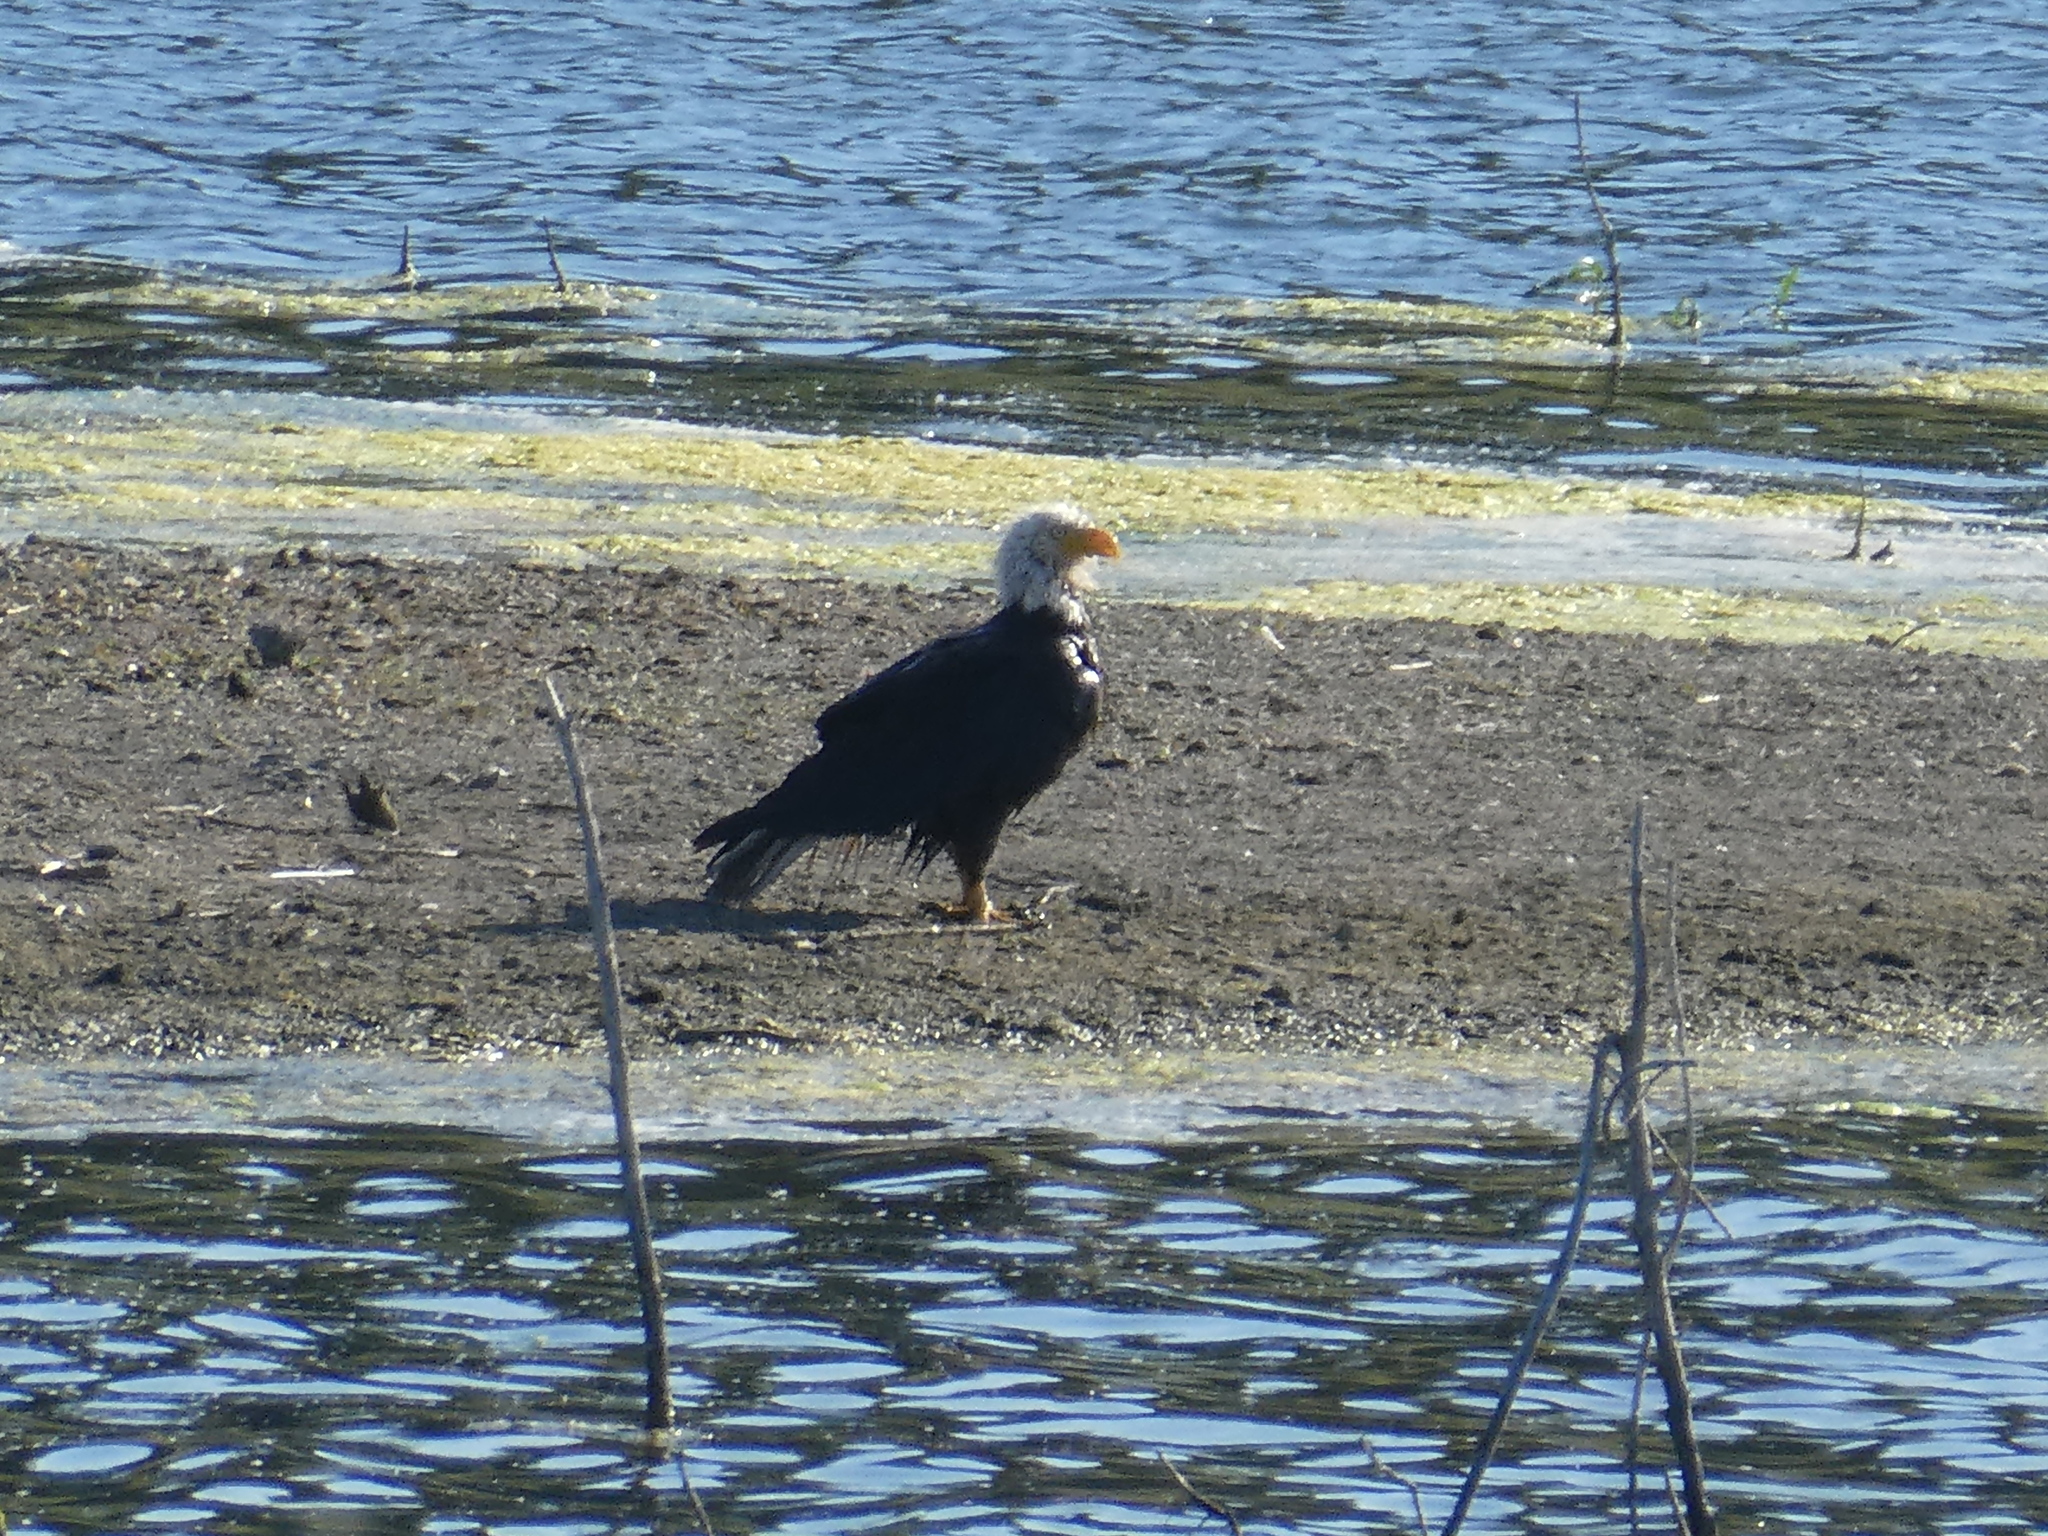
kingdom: Animalia
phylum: Chordata
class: Aves
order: Accipitriformes
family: Accipitridae
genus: Haliaeetus
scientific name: Haliaeetus leucocephalus
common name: Bald eagle
